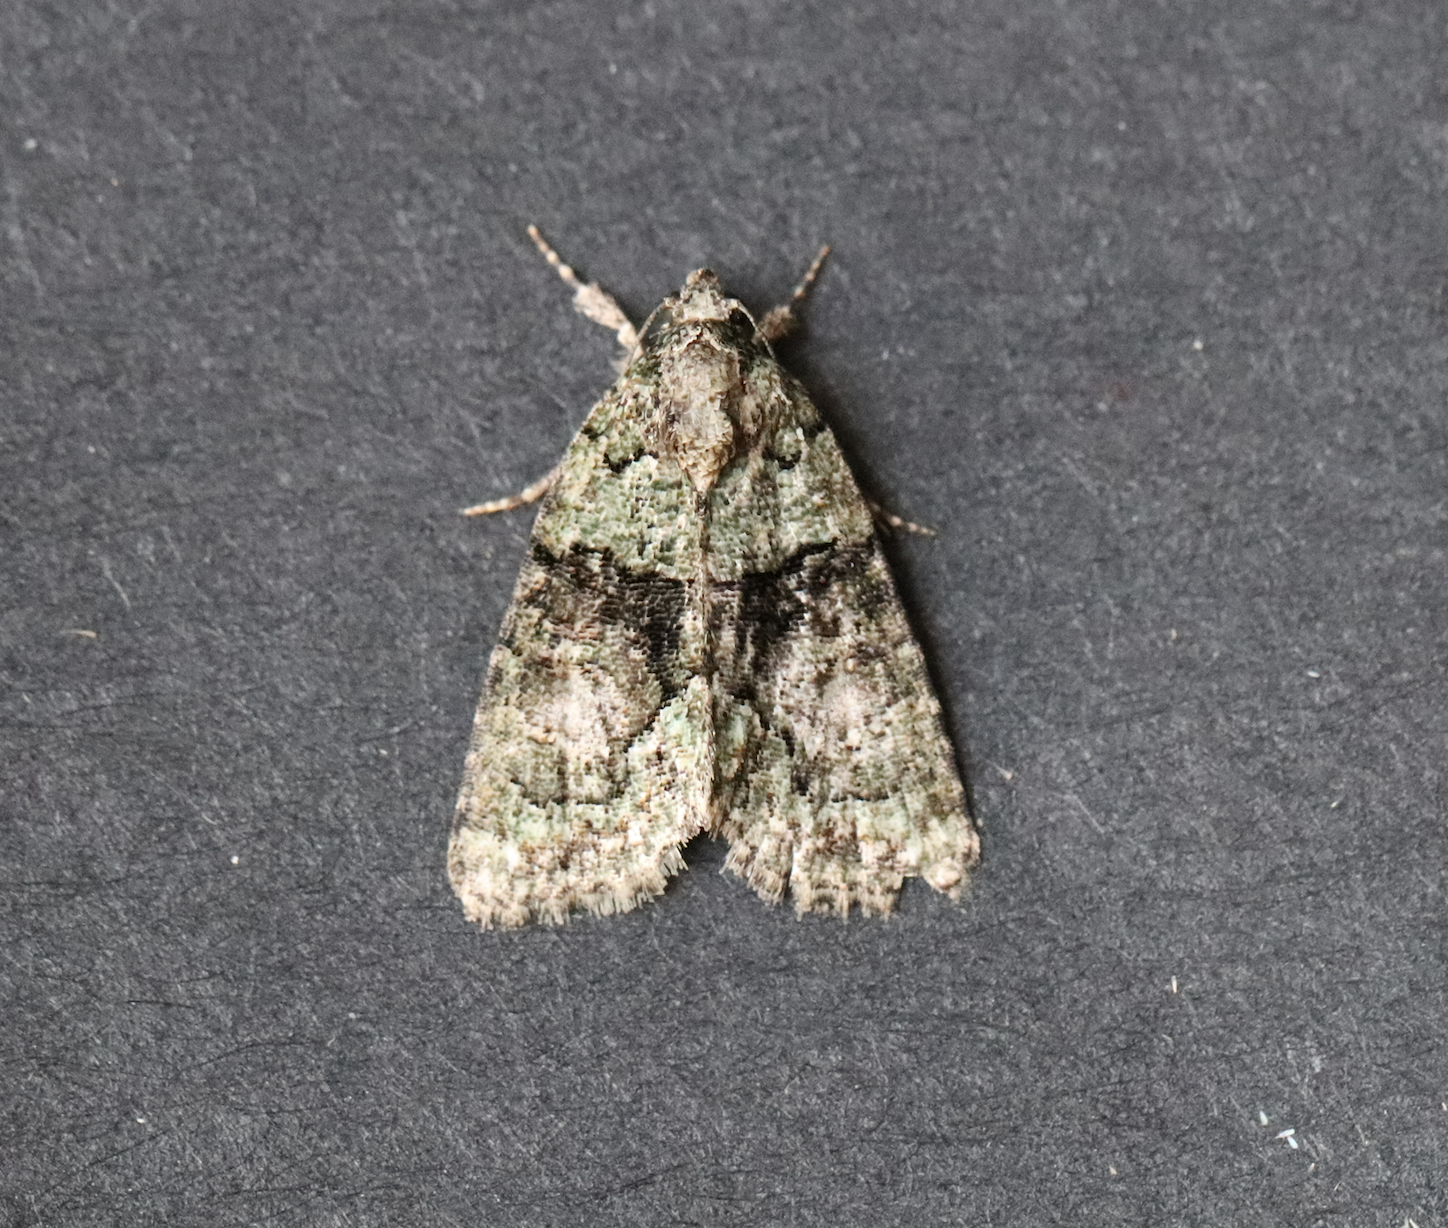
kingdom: Animalia
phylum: Arthropoda
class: Insecta
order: Lepidoptera
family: Noctuidae
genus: Cryphia
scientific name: Cryphia algae
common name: Tree-lichen beauty
